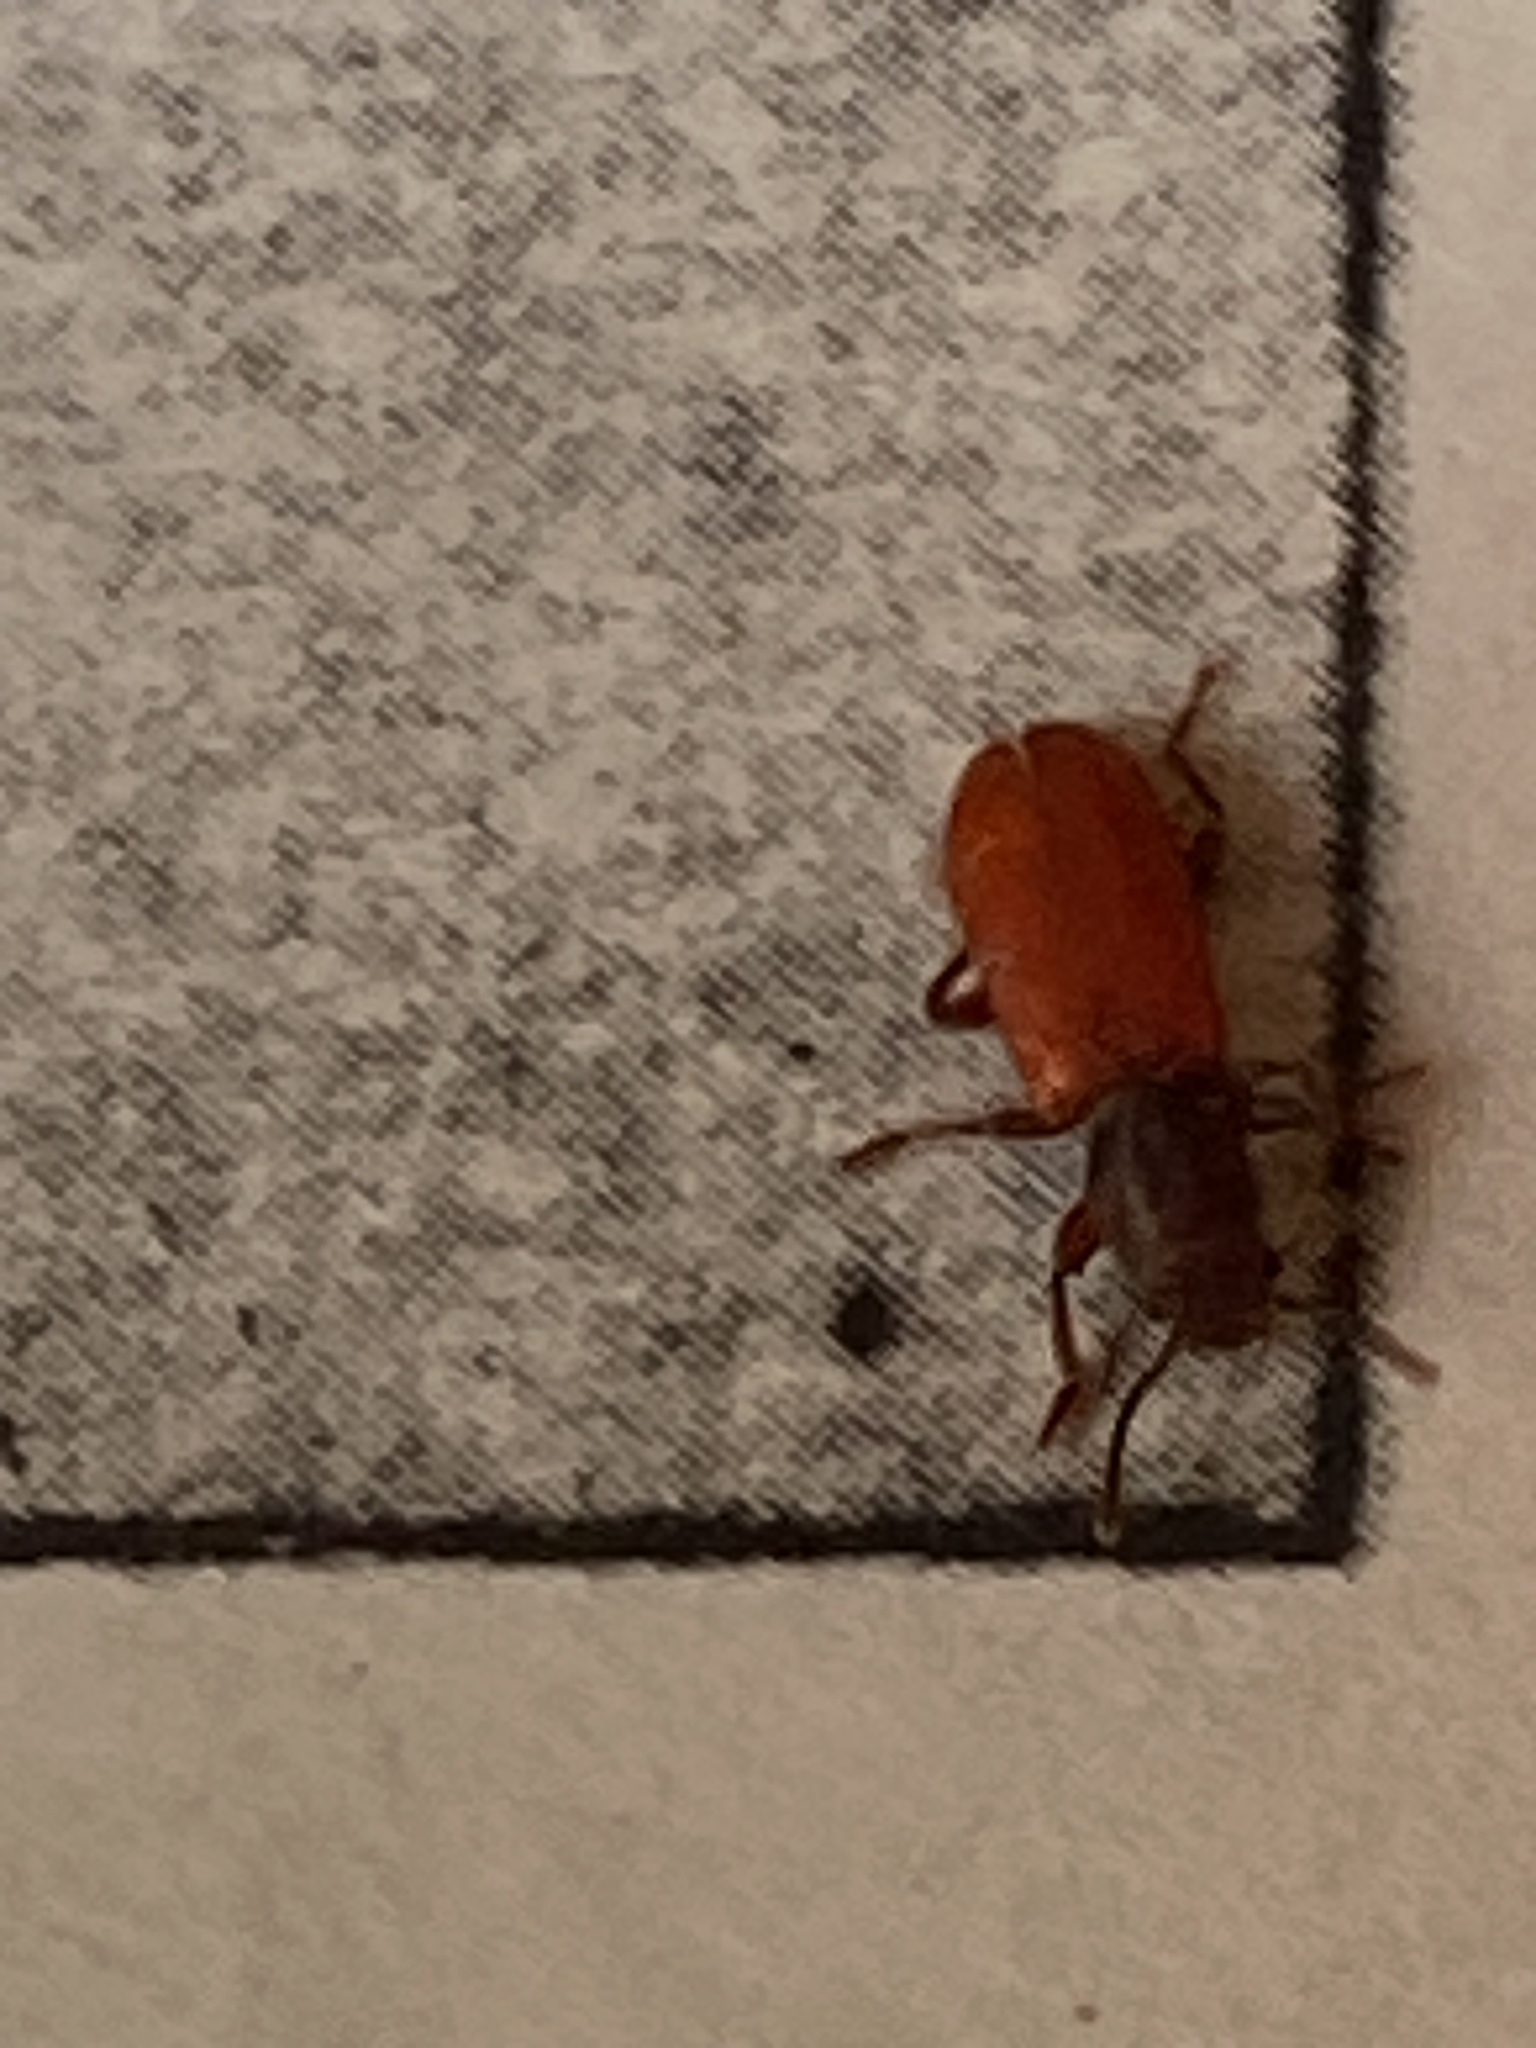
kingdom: Animalia
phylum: Arthropoda
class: Insecta
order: Coleoptera
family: Thanerocleridae
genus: Zenodosus
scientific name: Zenodosus sanguineus
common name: Blood-colored checkered beetle
